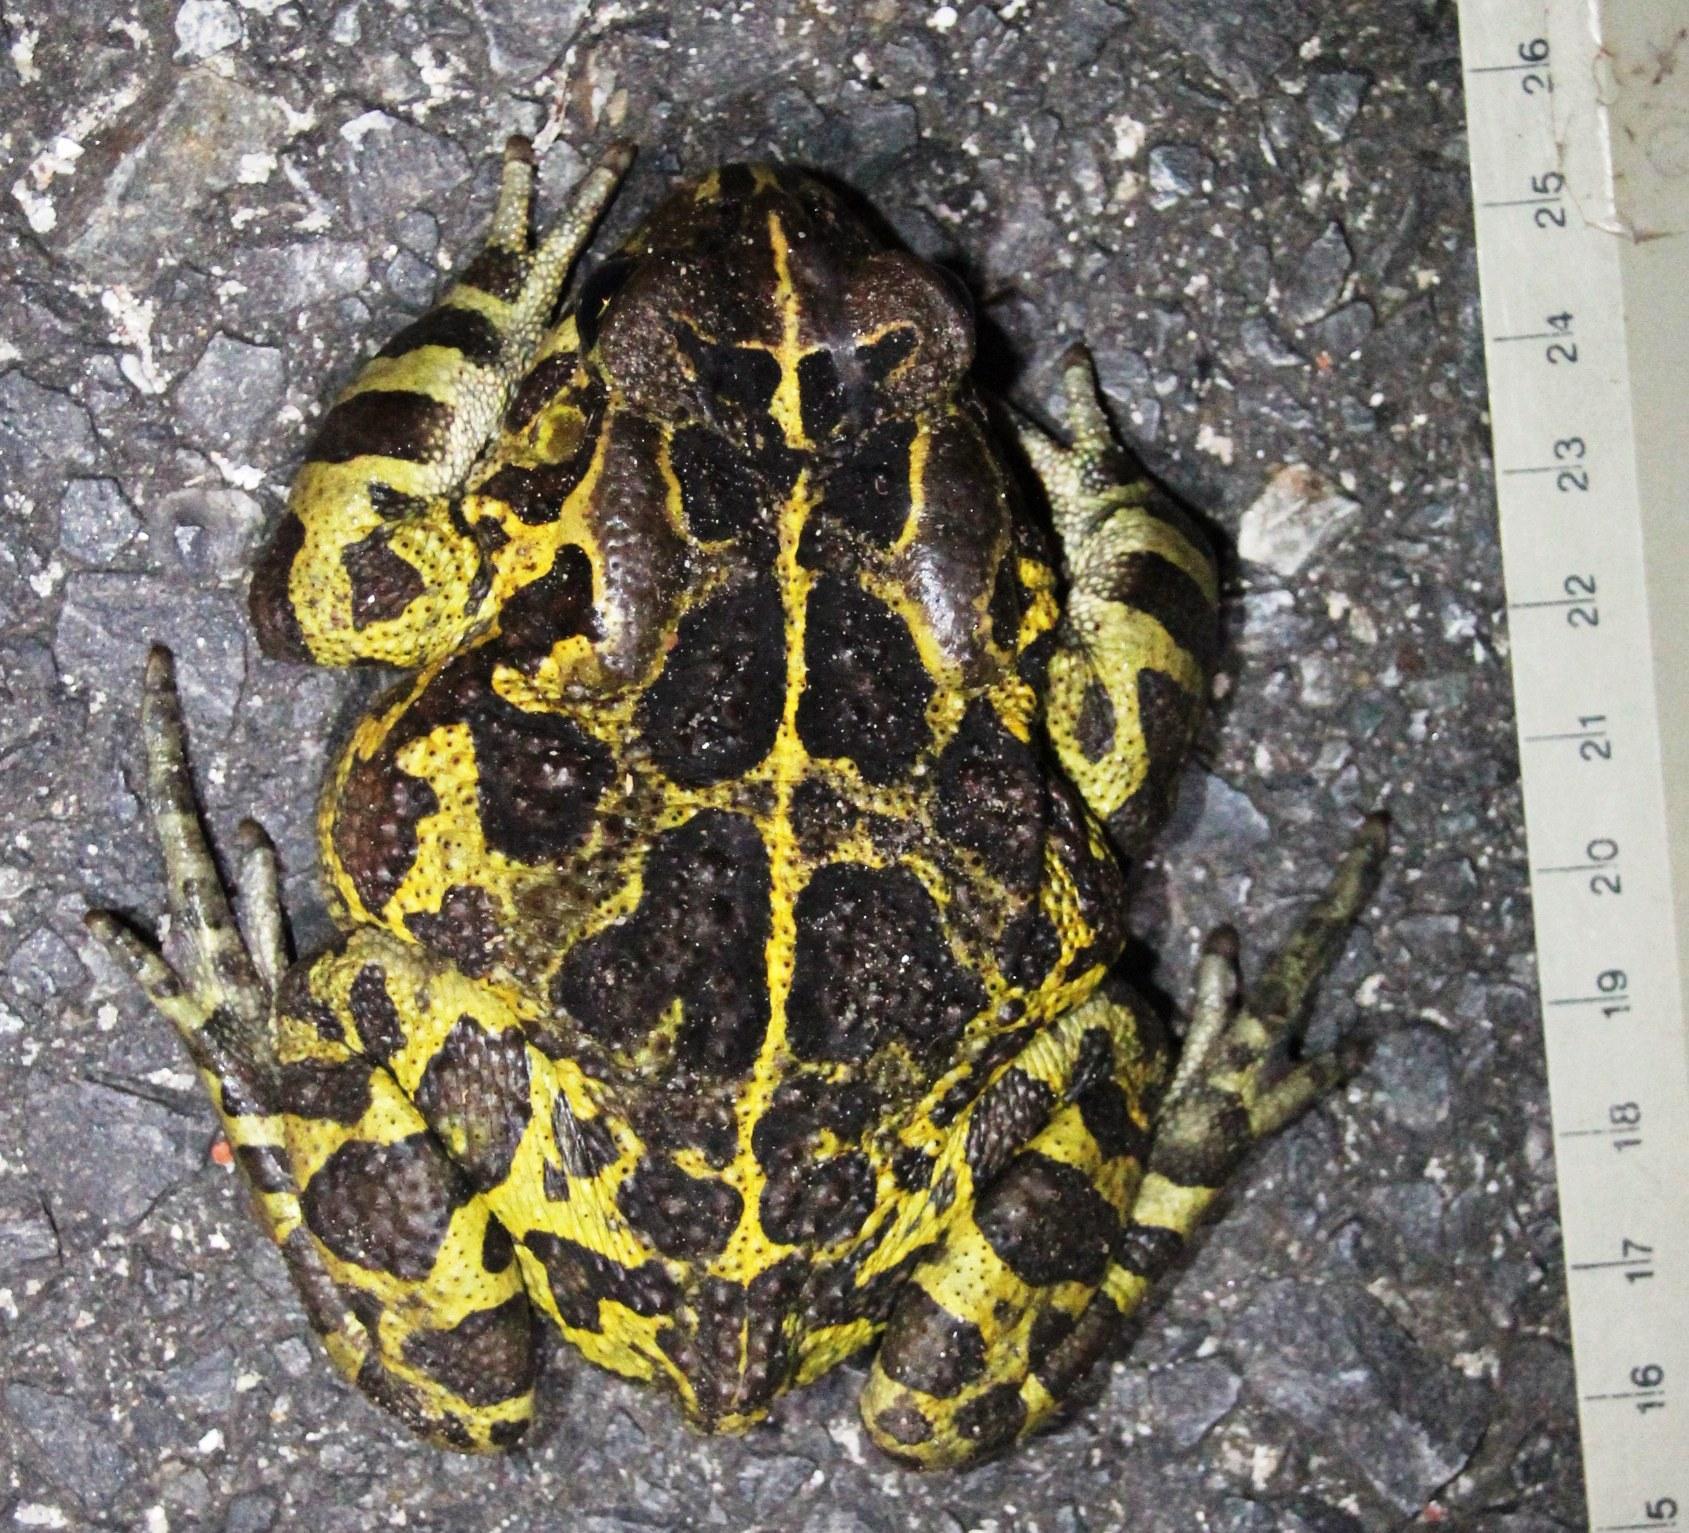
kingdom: Animalia
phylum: Chordata
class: Amphibia
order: Anura
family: Bufonidae
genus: Sclerophrys
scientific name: Sclerophrys pantherina
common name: Panther toad
